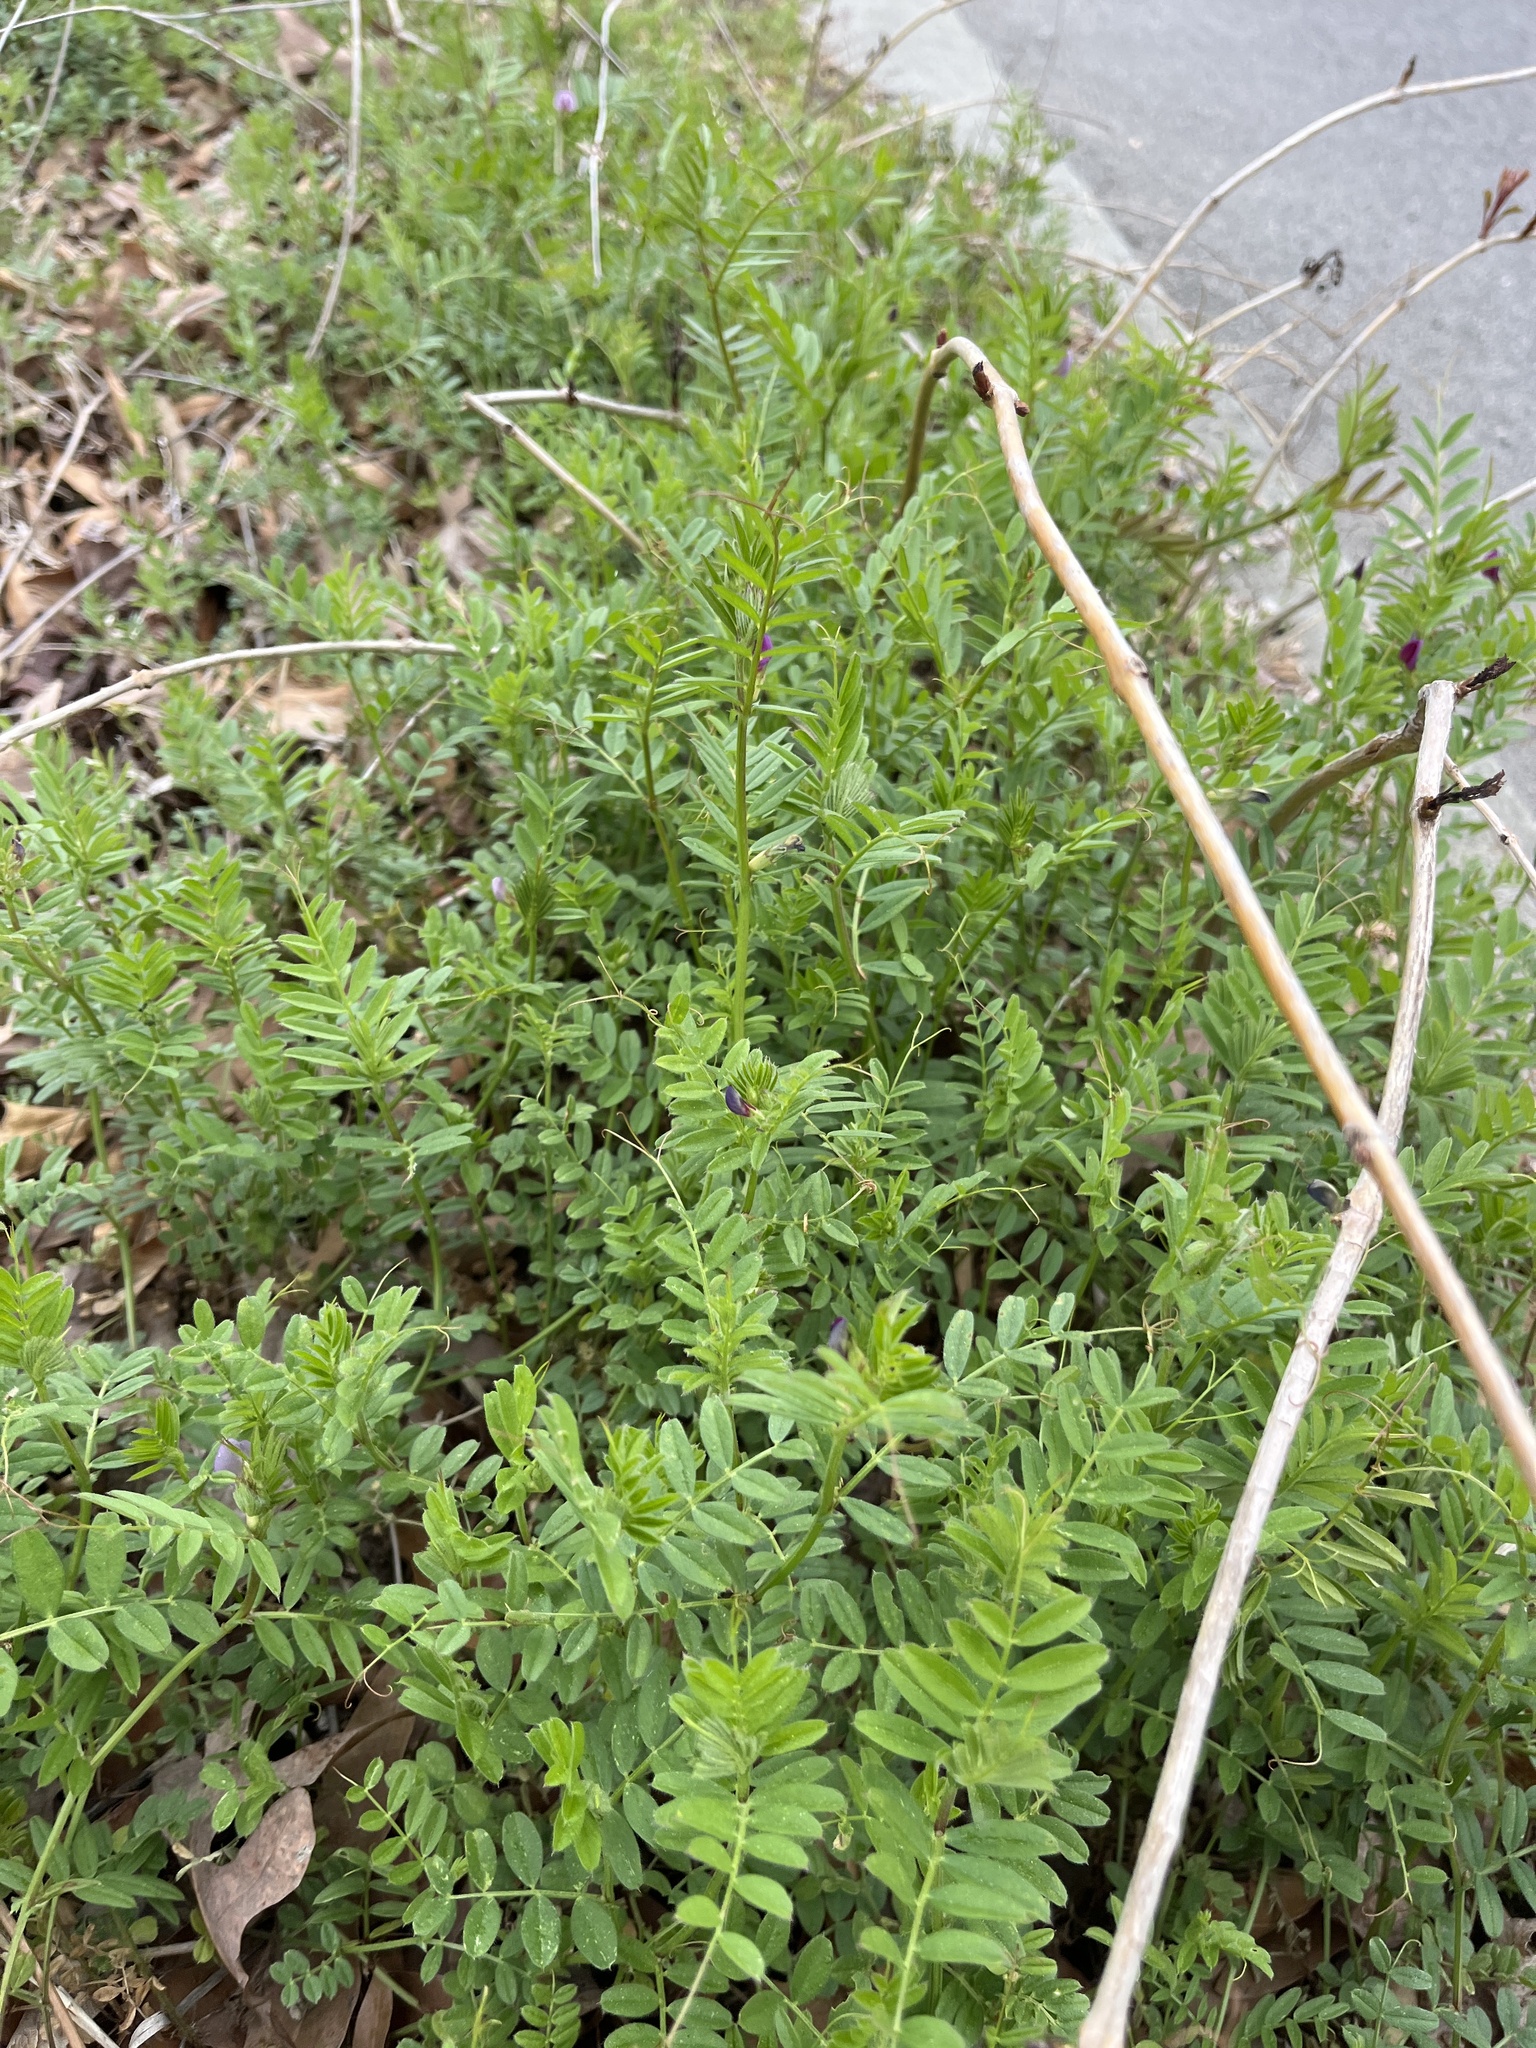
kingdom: Plantae
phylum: Tracheophyta
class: Magnoliopsida
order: Fabales
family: Fabaceae
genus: Vicia
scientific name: Vicia sativa
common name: Garden vetch
